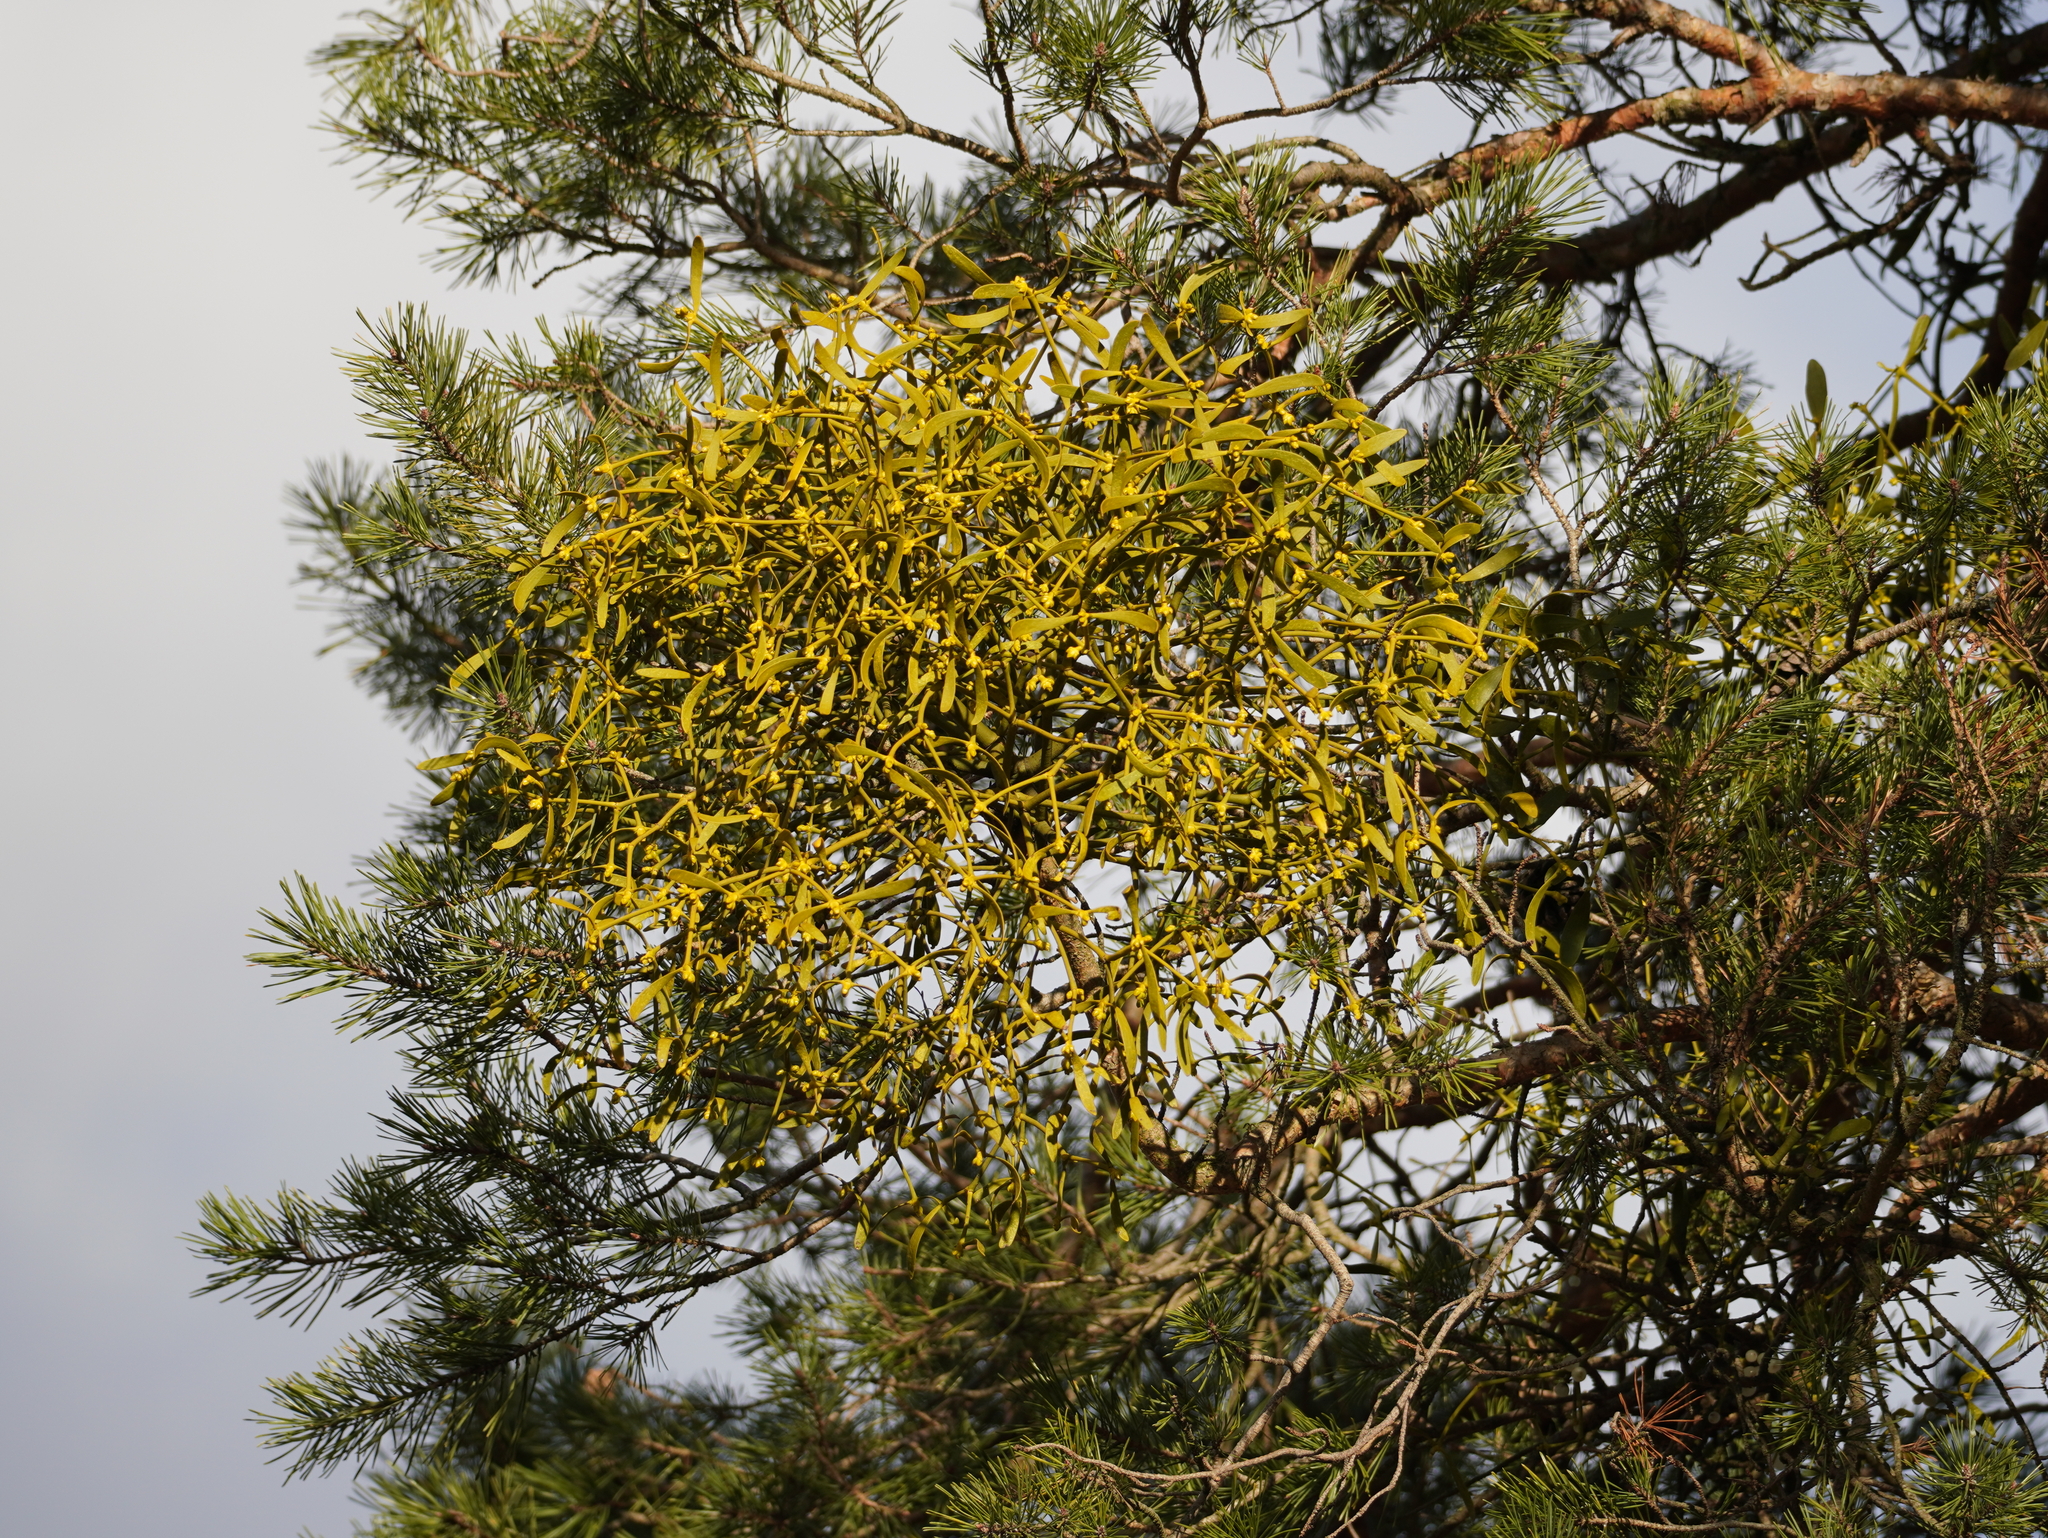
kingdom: Plantae
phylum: Tracheophyta
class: Magnoliopsida
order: Santalales
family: Viscaceae
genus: Viscum
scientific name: Viscum laxum
